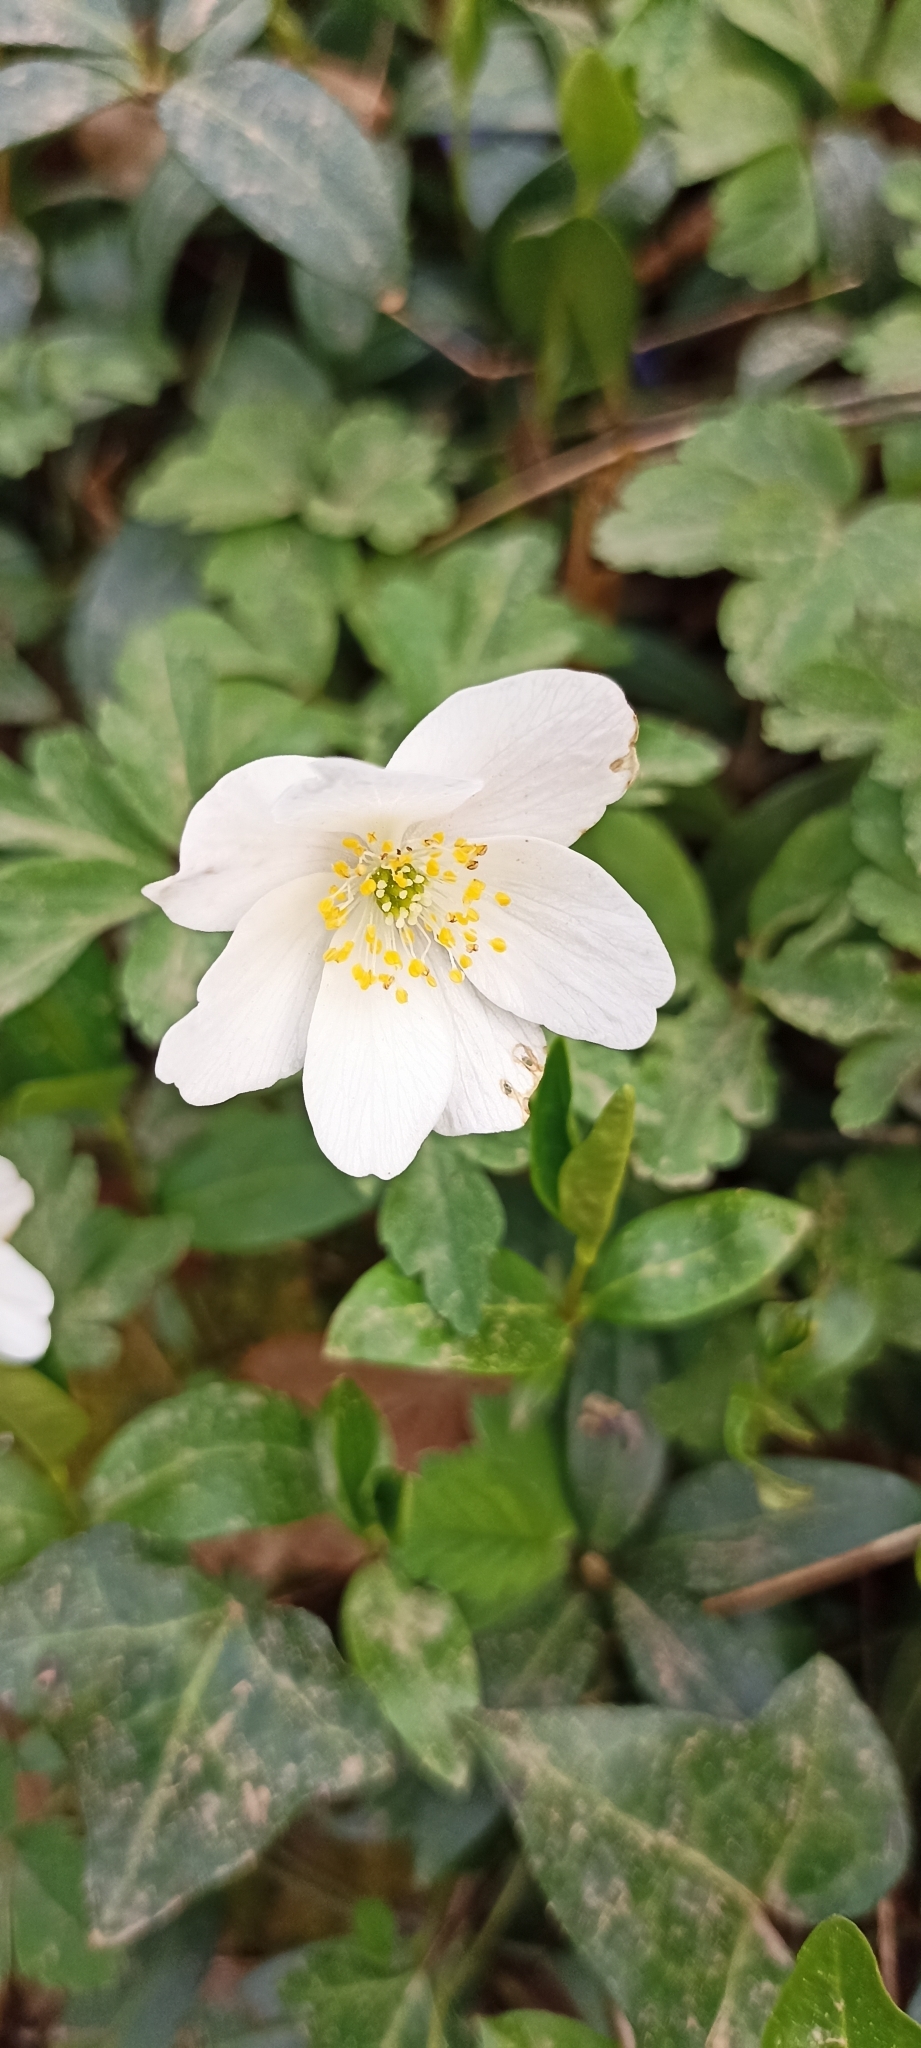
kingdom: Plantae
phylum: Tracheophyta
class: Magnoliopsida
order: Ranunculales
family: Ranunculaceae
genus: Anemone
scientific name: Anemone nemorosa
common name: Wood anemone
